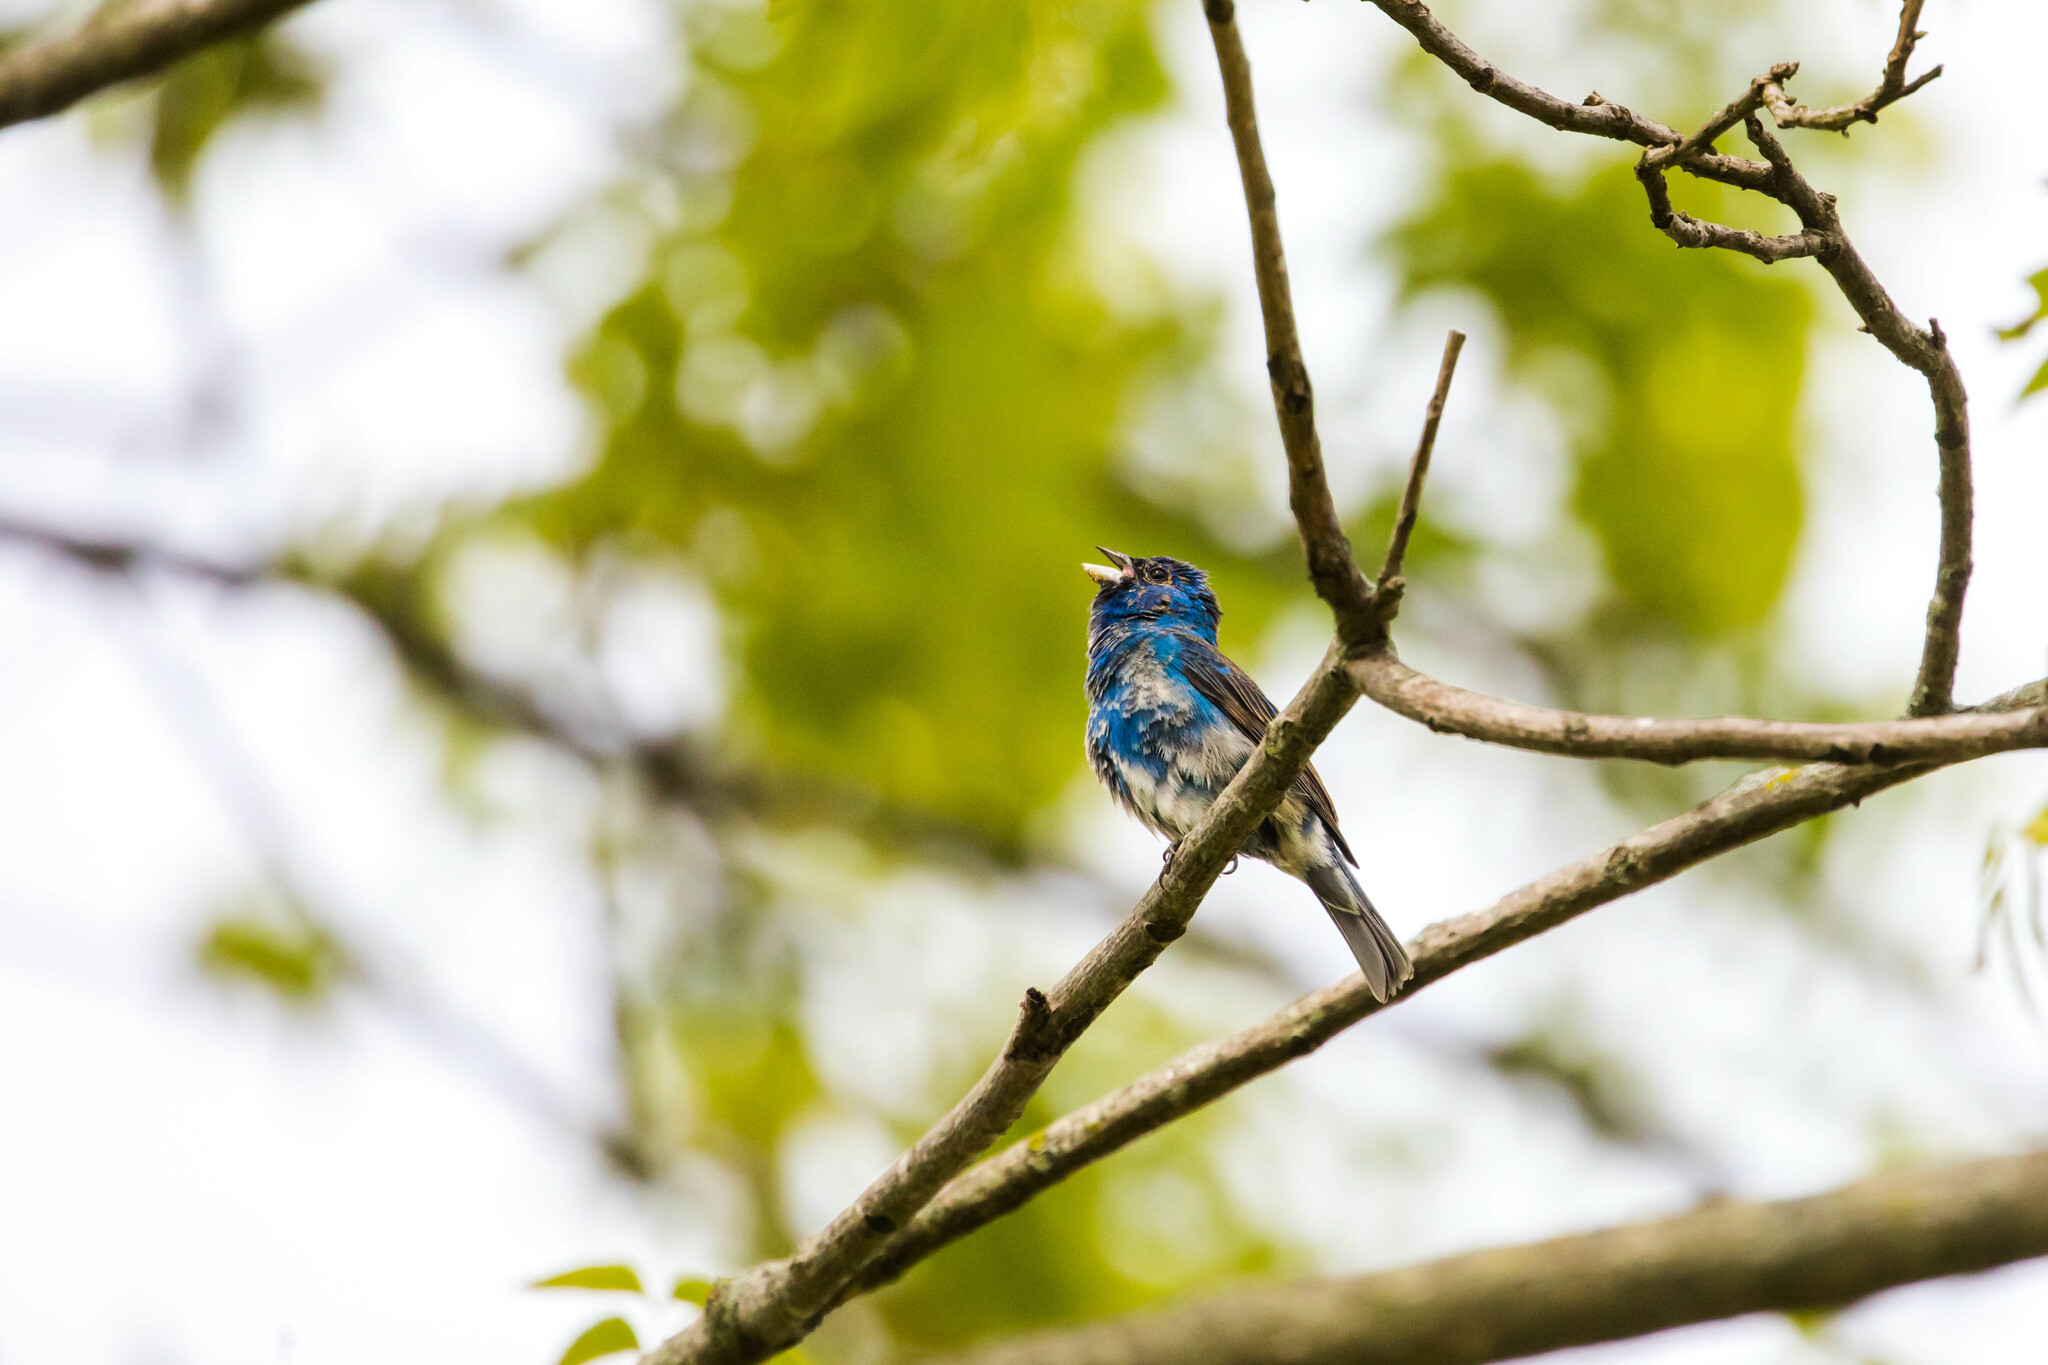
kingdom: Animalia
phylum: Chordata
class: Aves
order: Passeriformes
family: Cardinalidae
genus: Passerina
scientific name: Passerina cyanea
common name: Indigo bunting
